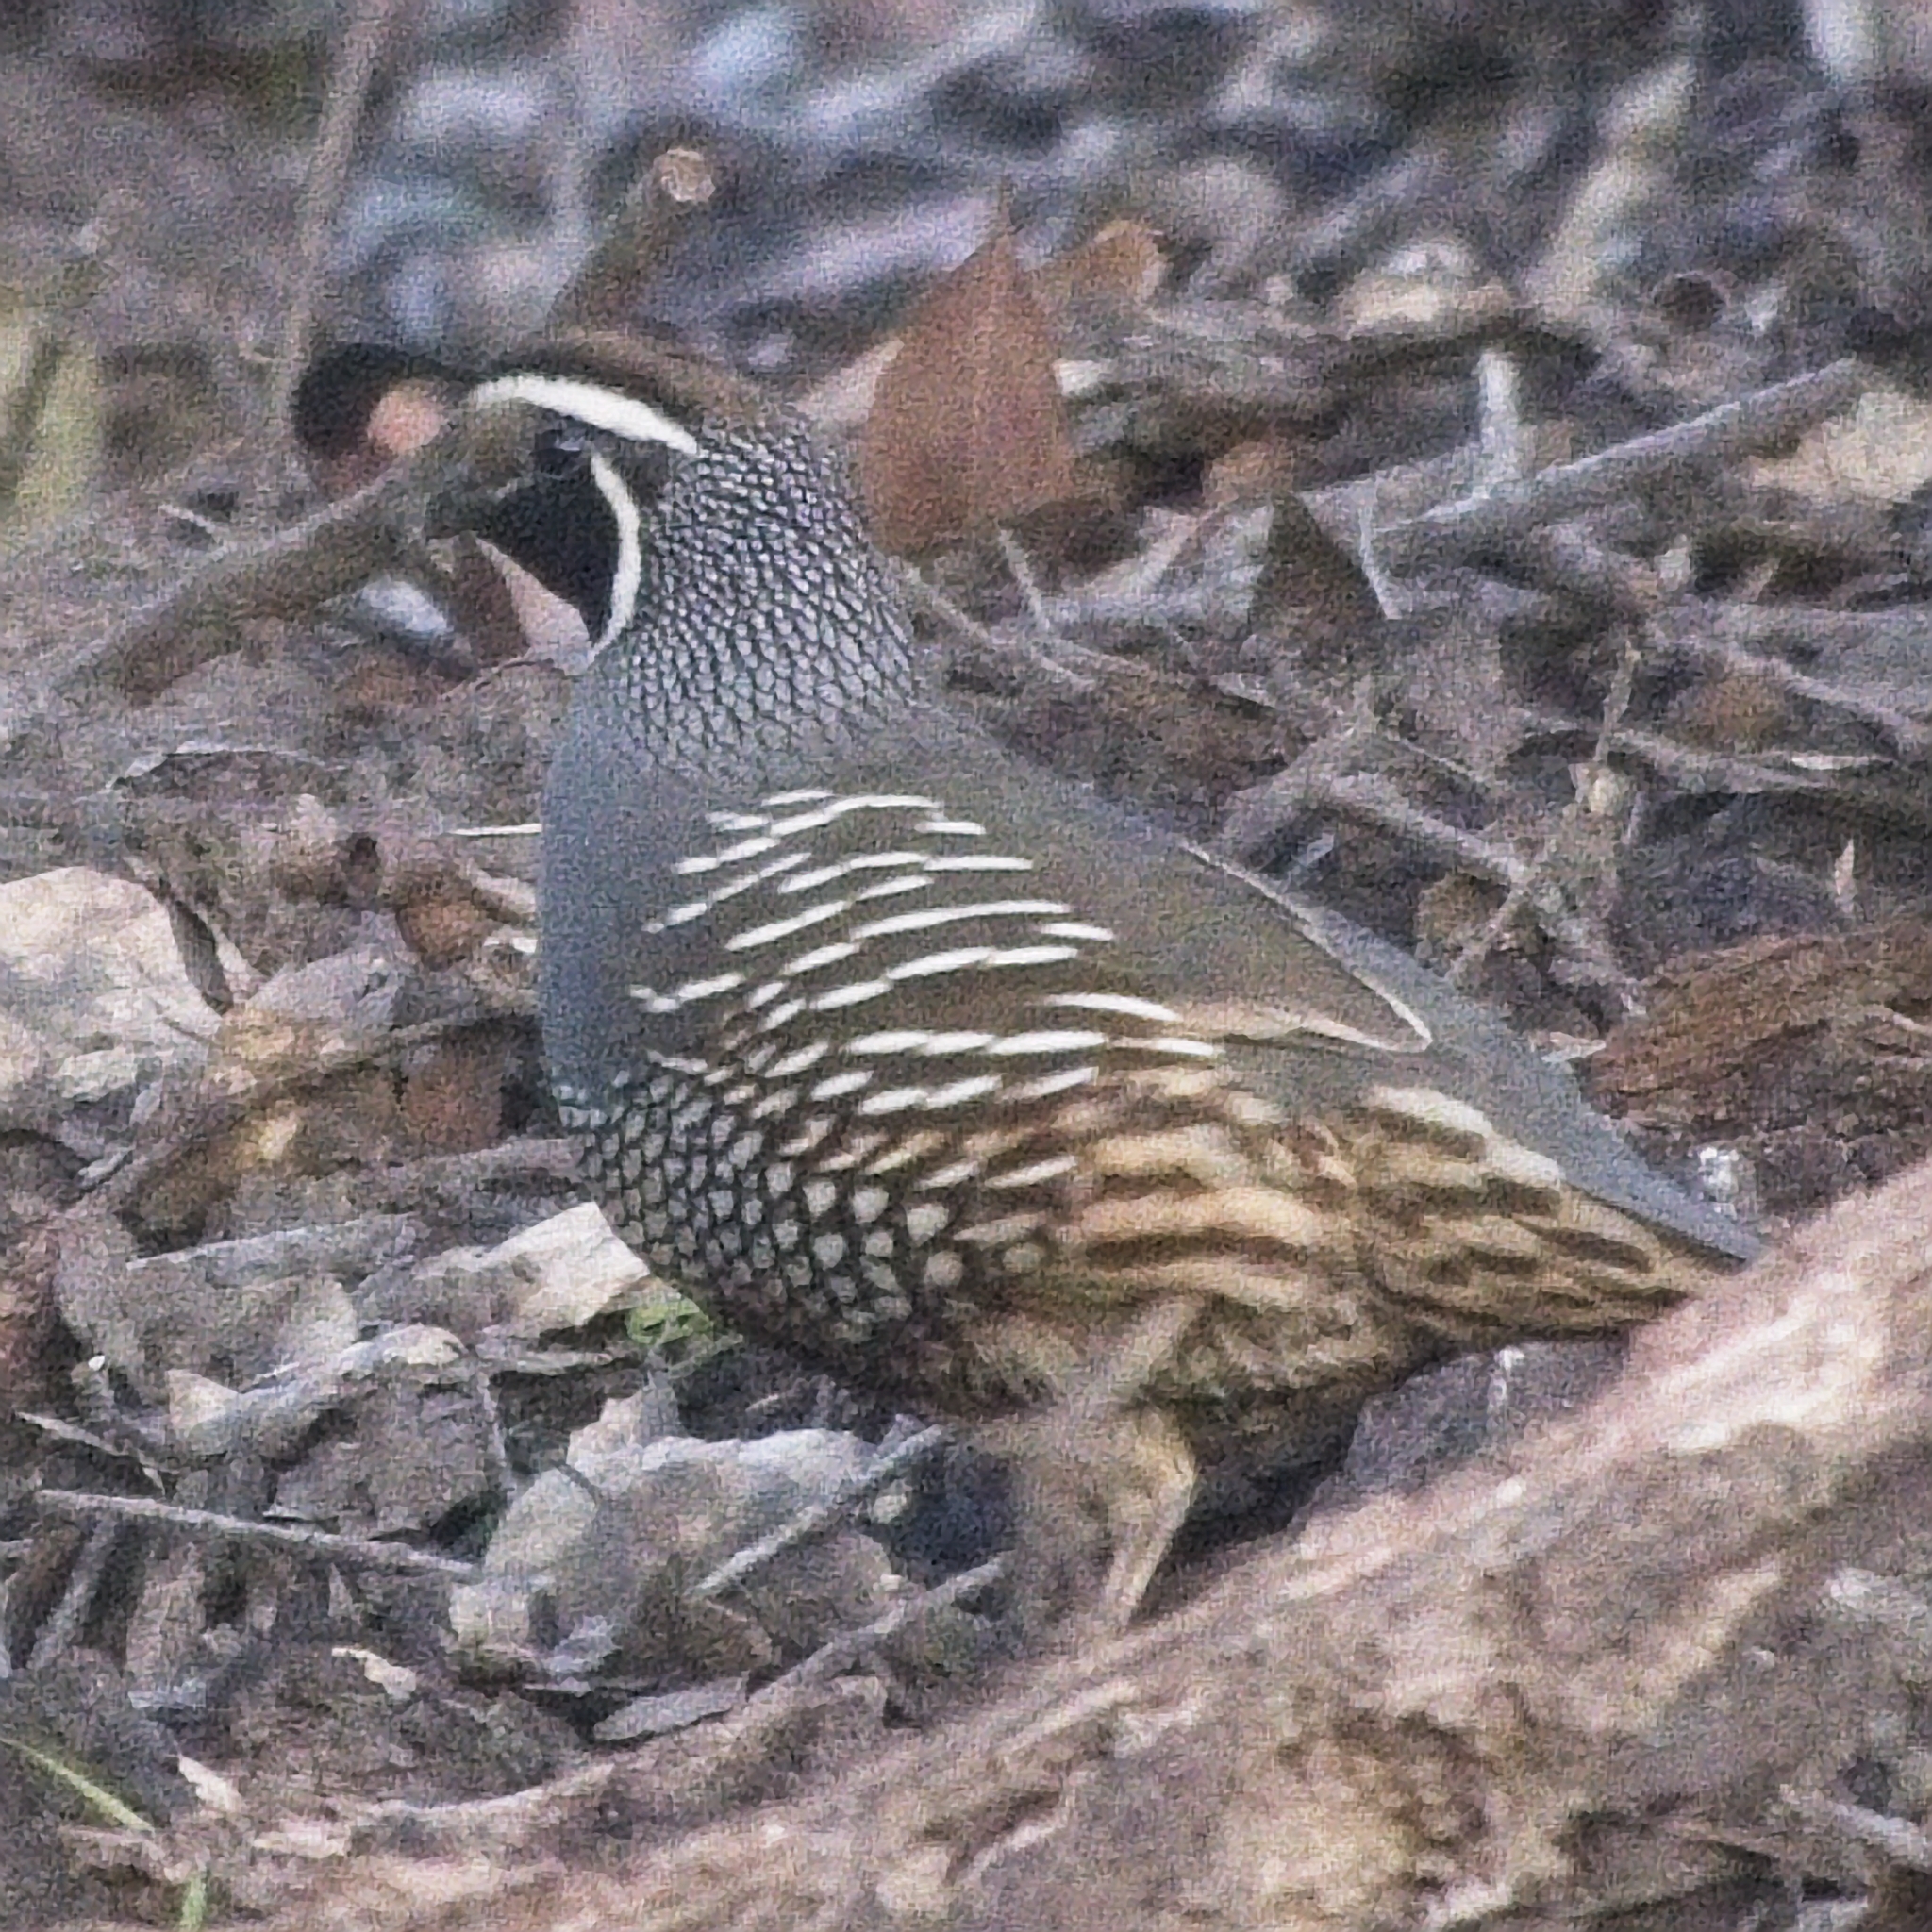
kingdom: Animalia
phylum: Chordata
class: Aves
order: Galliformes
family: Odontophoridae
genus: Callipepla
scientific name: Callipepla californica
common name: California quail
